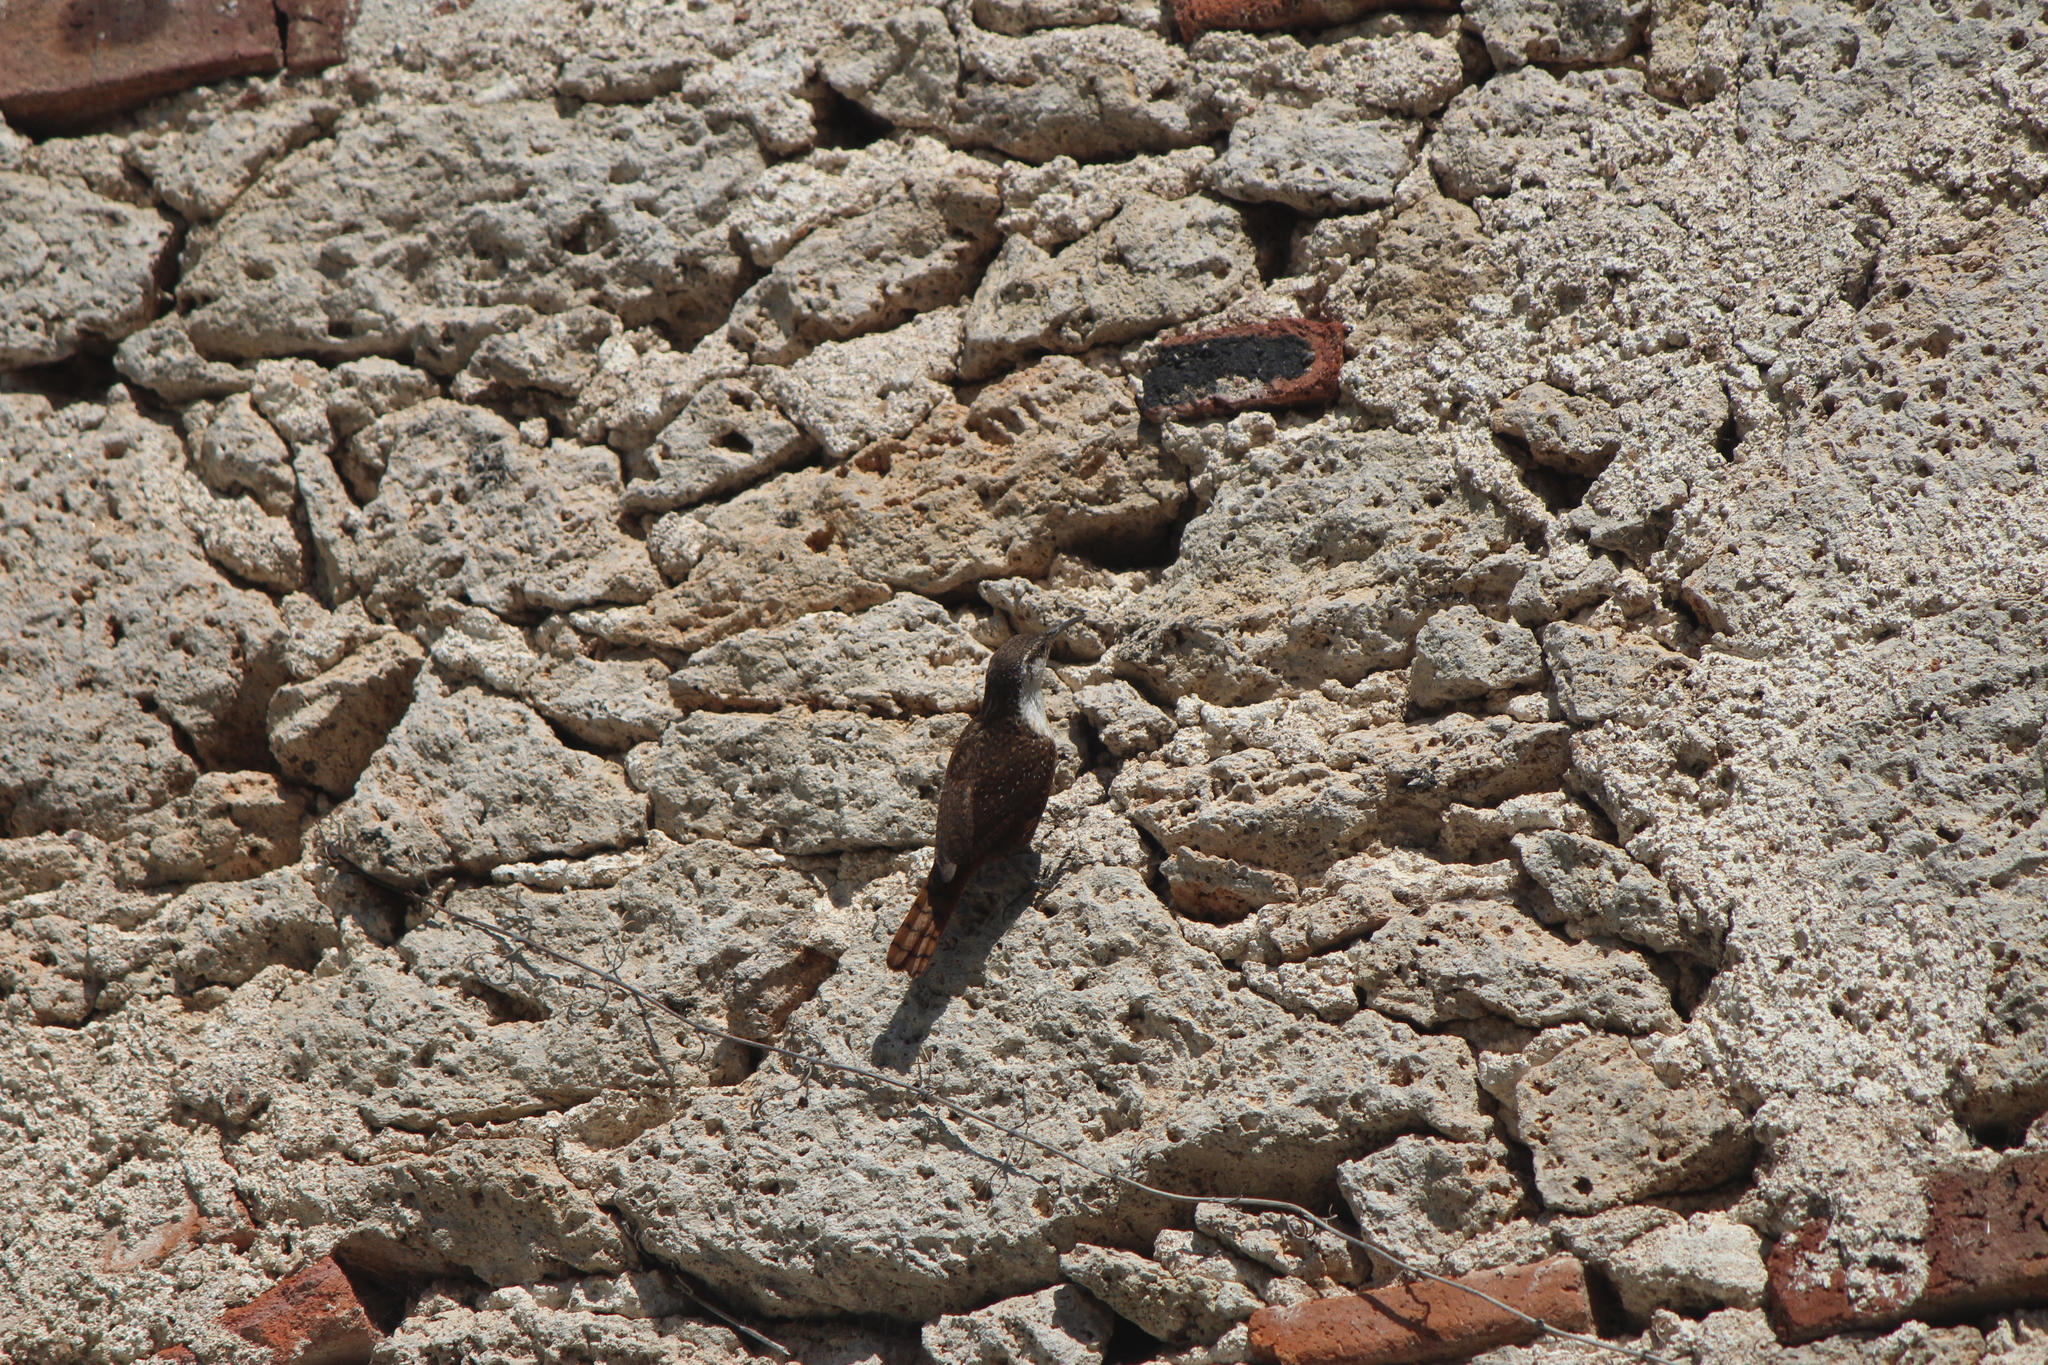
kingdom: Animalia
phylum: Chordata
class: Aves
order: Passeriformes
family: Troglodytidae
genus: Catherpes
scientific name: Catherpes mexicanus
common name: Canyon wren
